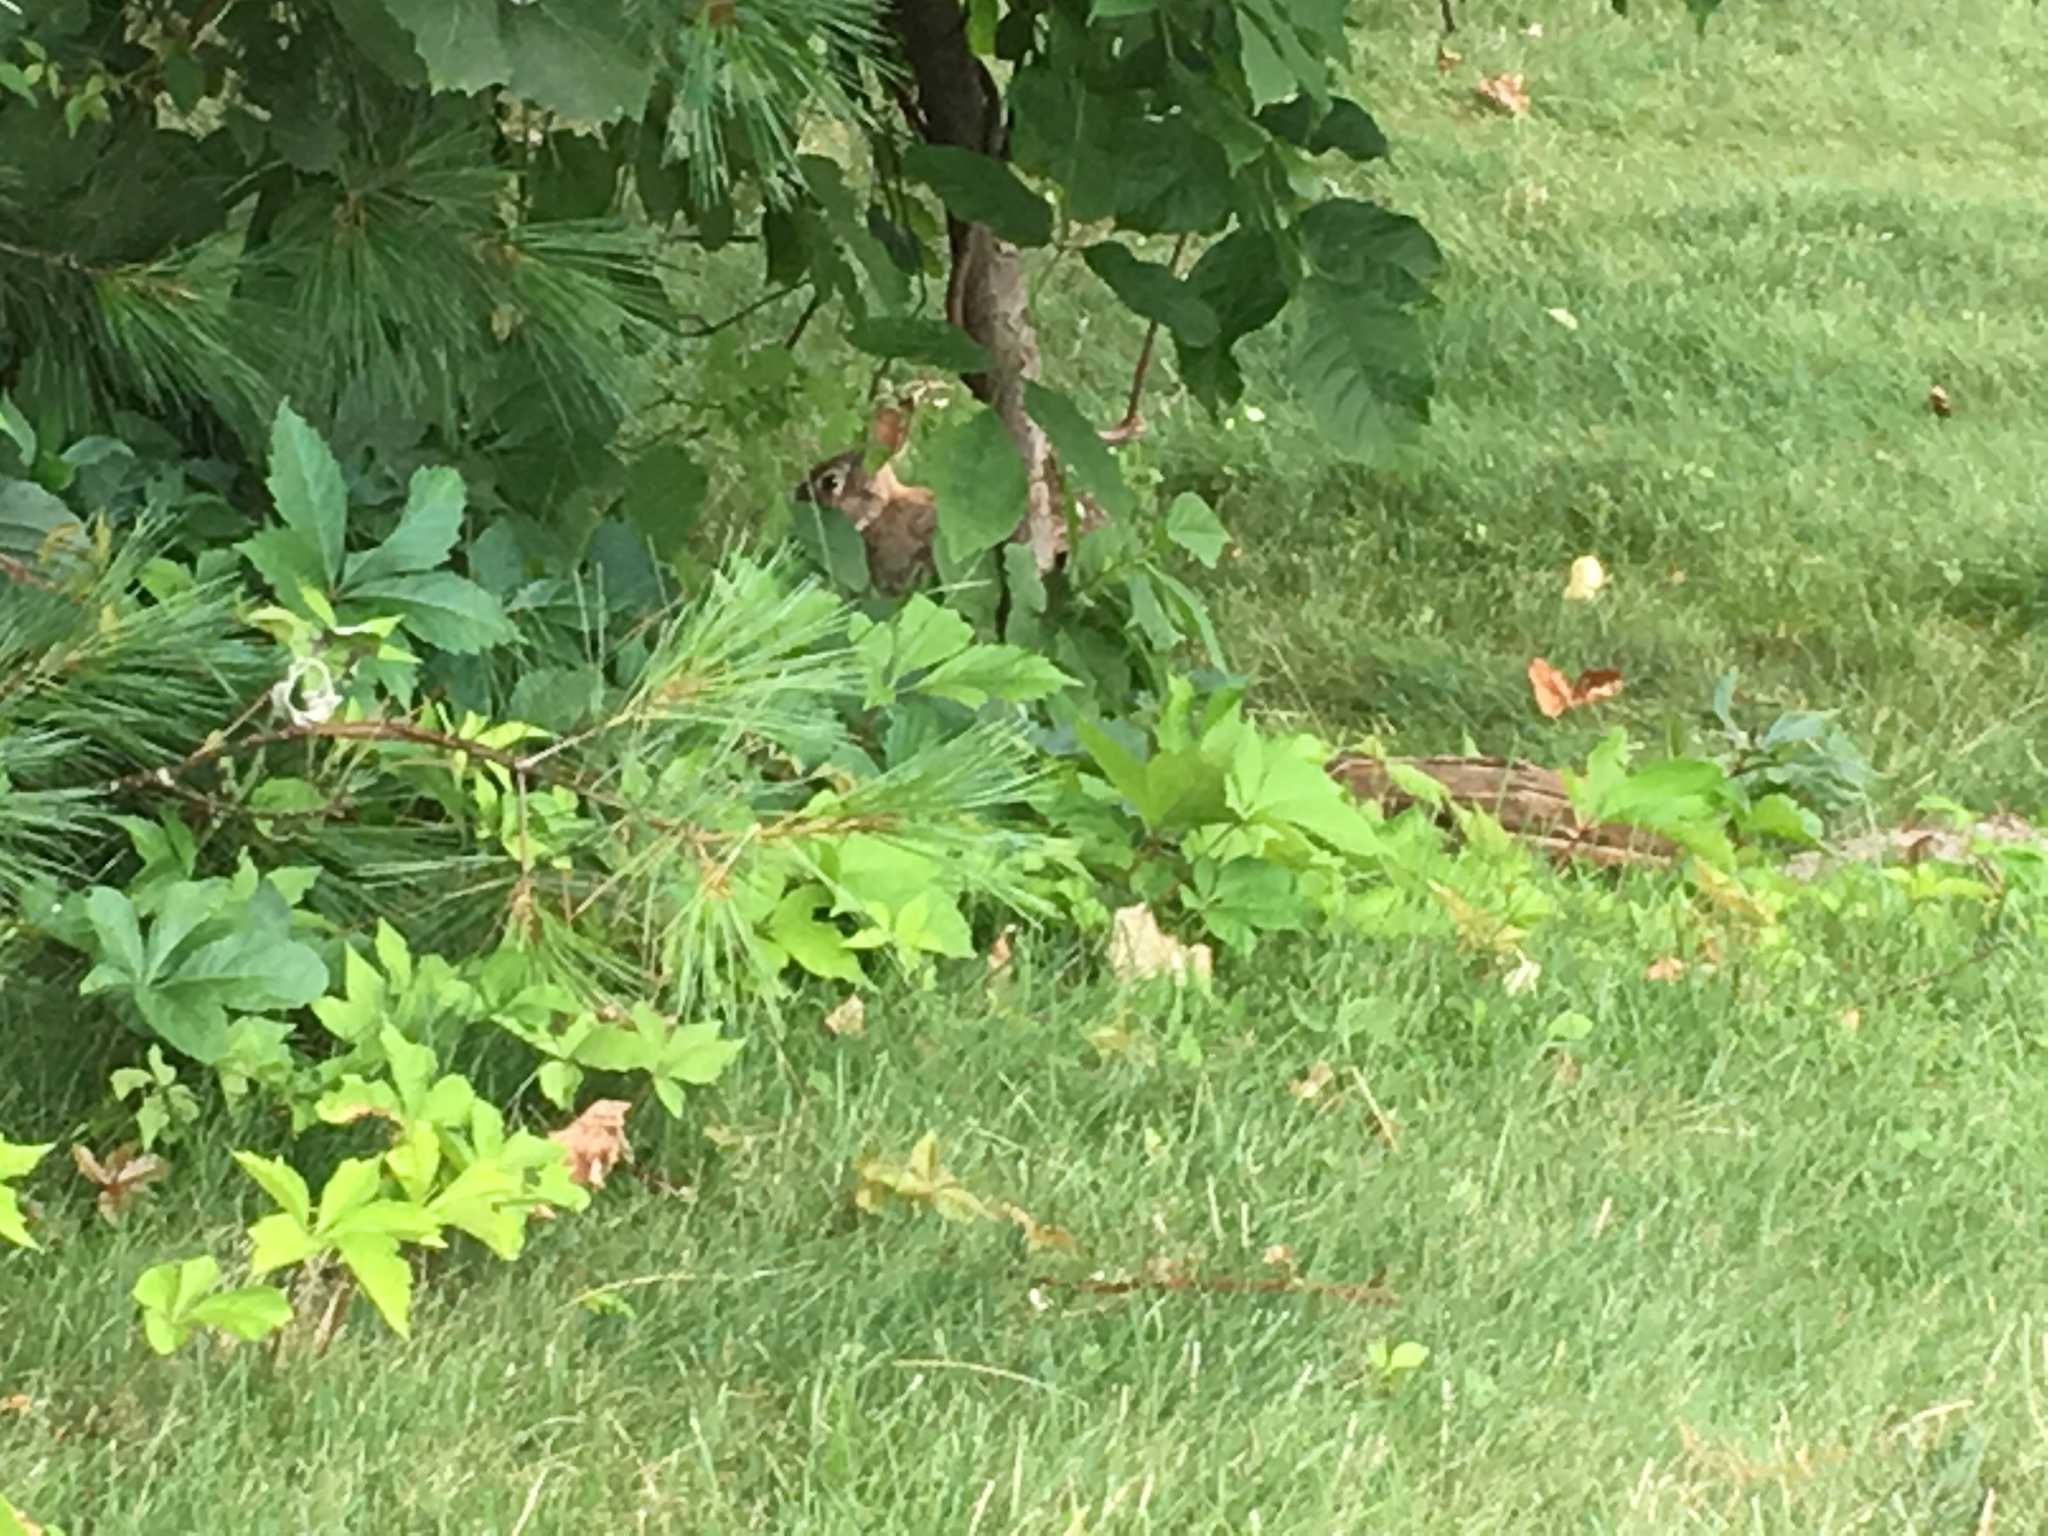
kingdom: Animalia
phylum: Chordata
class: Mammalia
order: Lagomorpha
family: Leporidae
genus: Sylvilagus
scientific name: Sylvilagus floridanus
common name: Eastern cottontail
